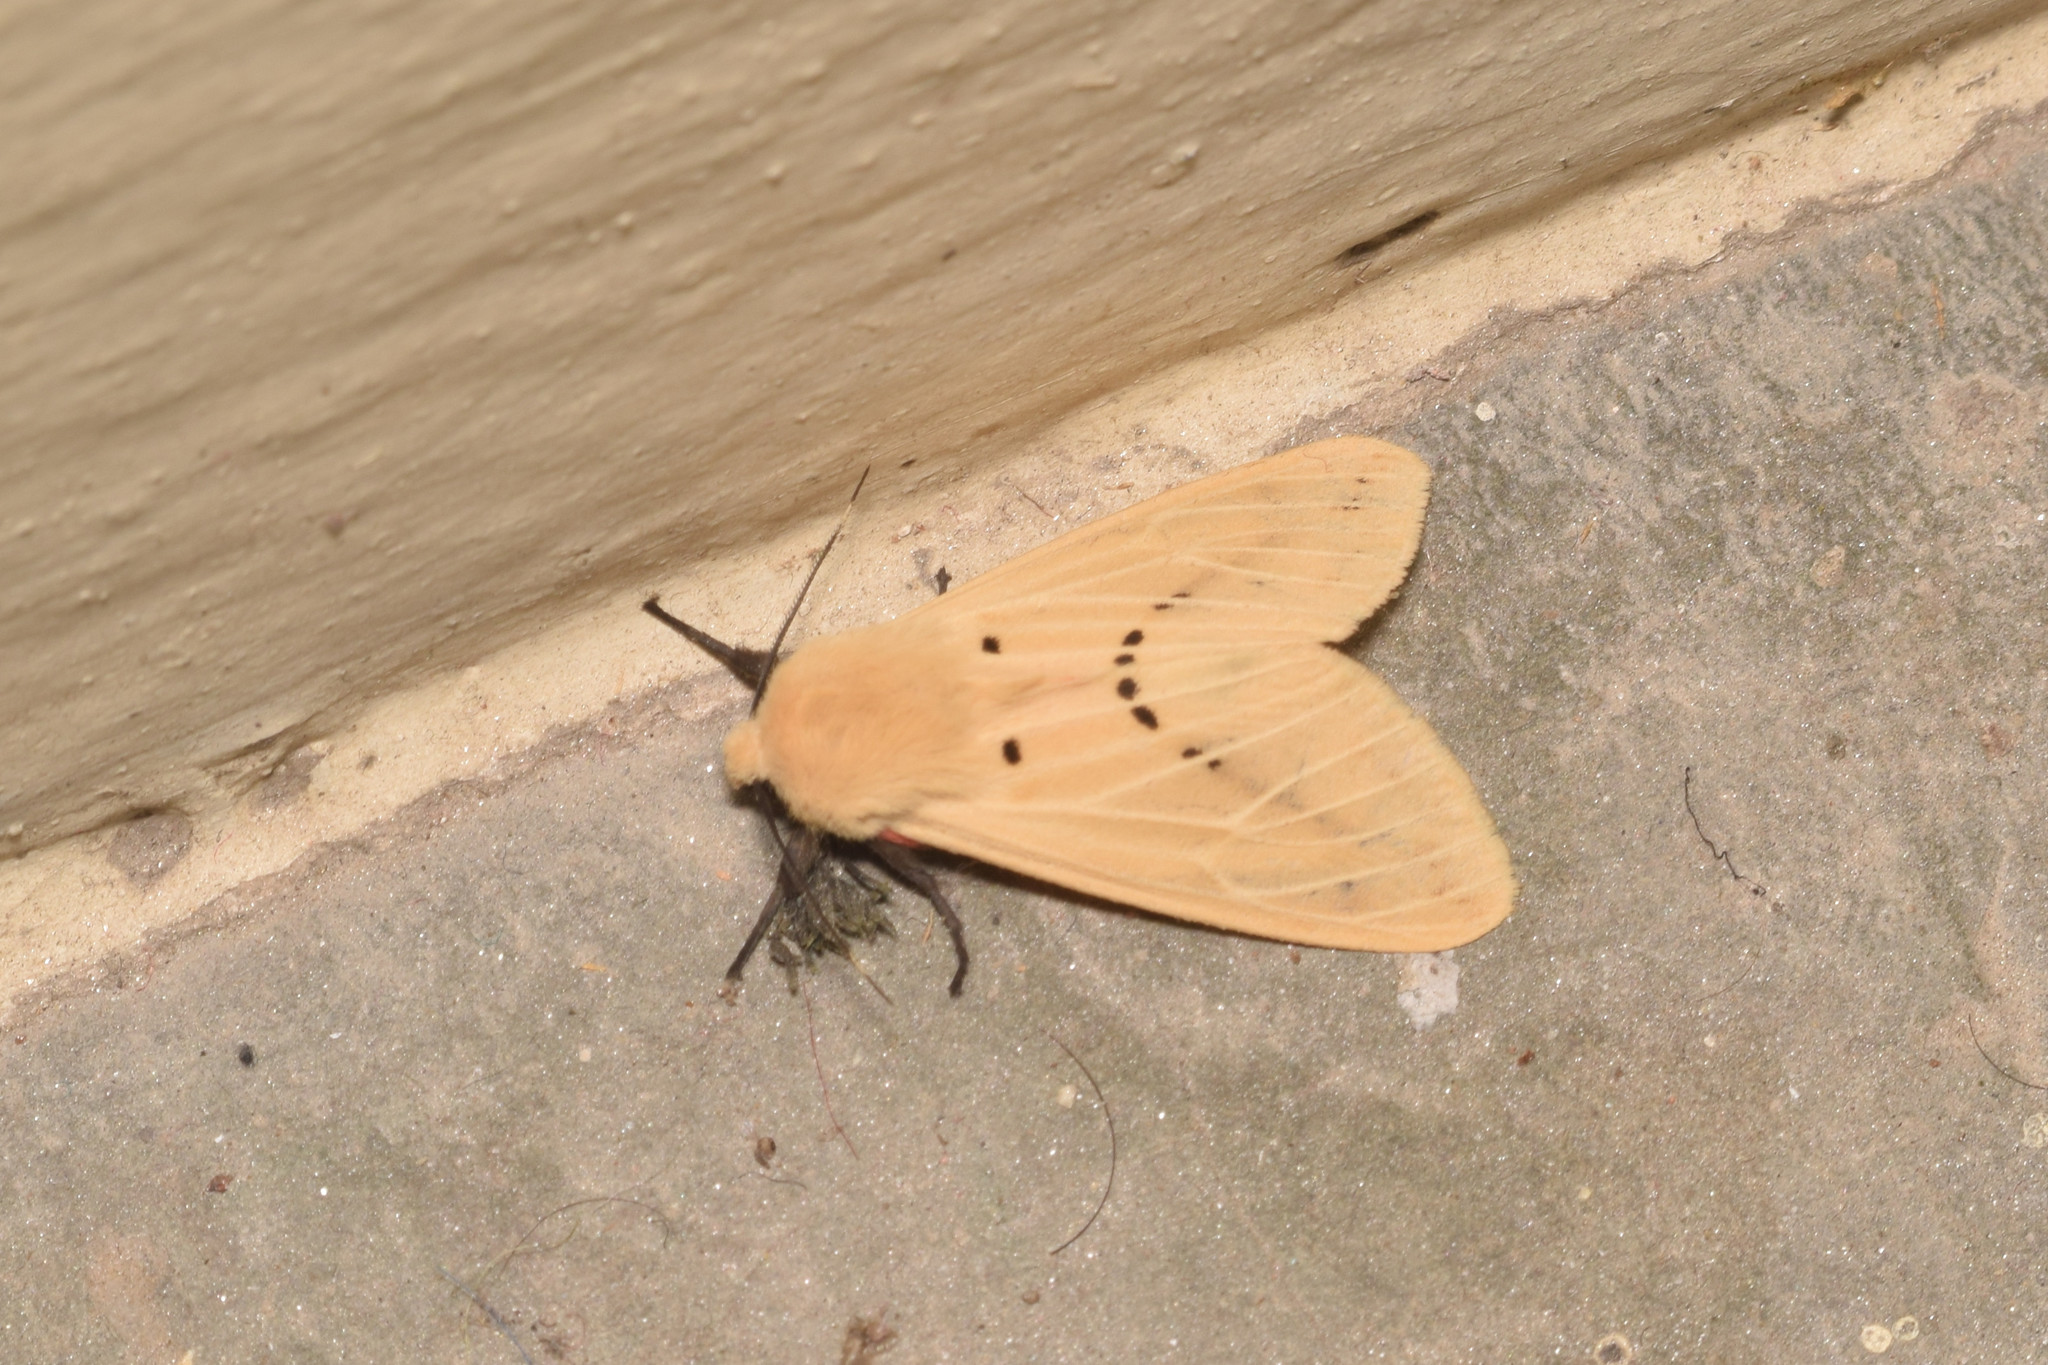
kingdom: Animalia
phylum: Arthropoda
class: Insecta
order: Lepidoptera
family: Erebidae
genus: Lemyra
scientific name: Lemyra flavalis
